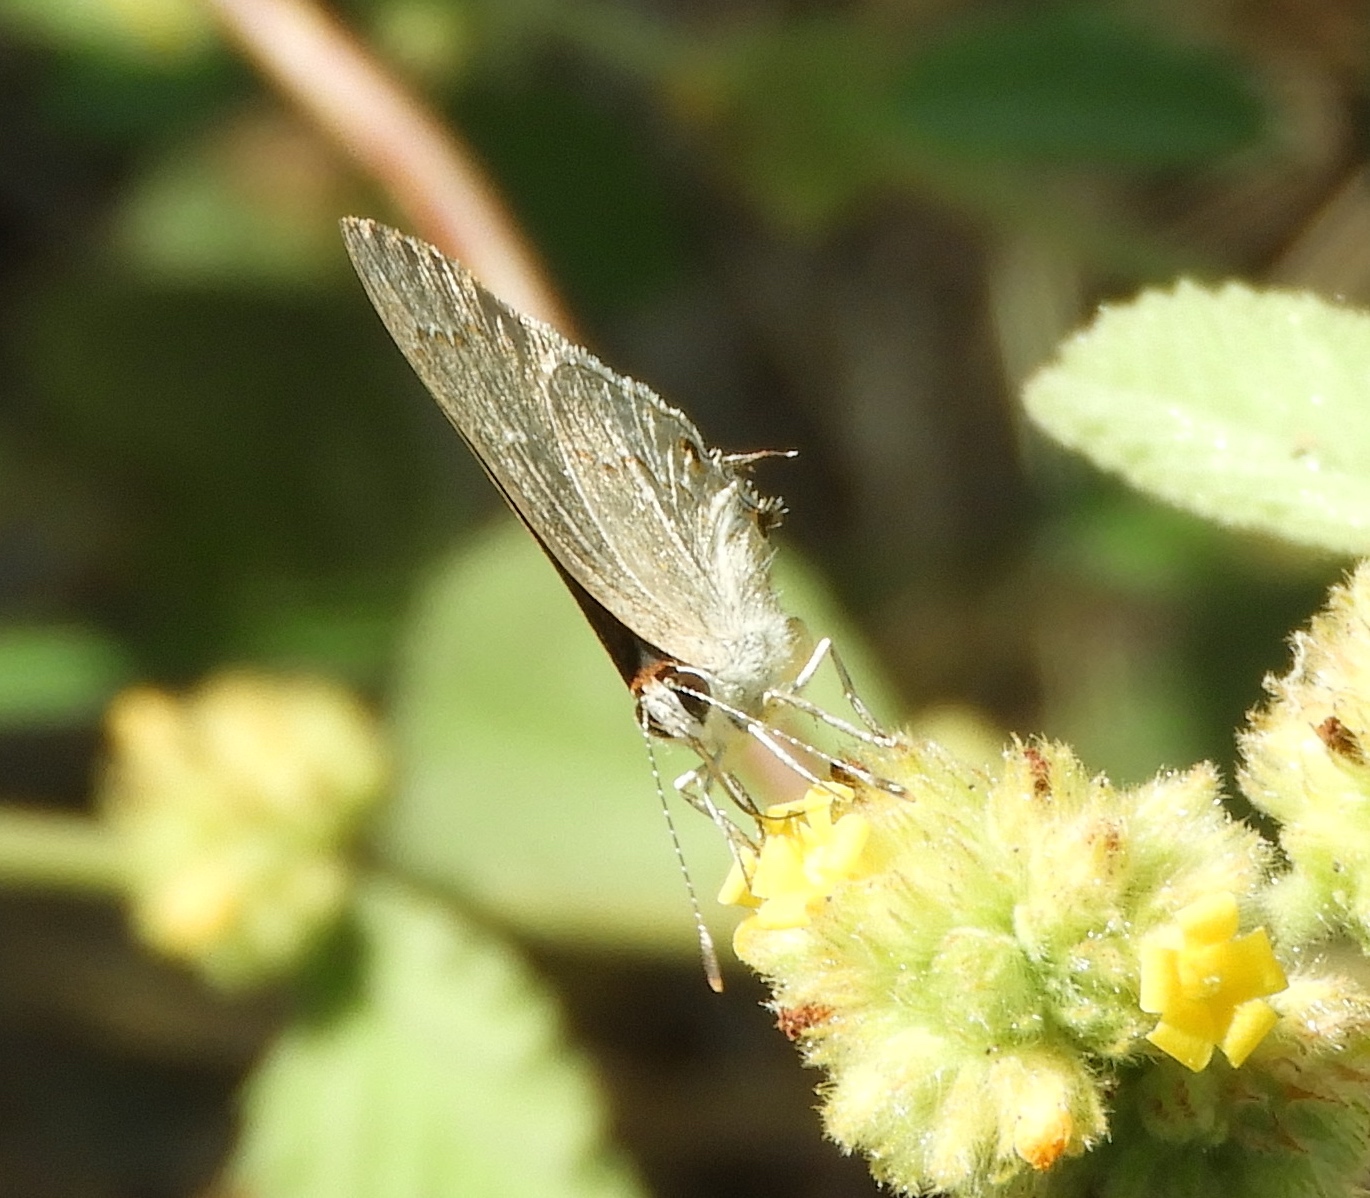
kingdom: Animalia
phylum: Arthropoda
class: Insecta
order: Lepidoptera
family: Lycaenidae
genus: Thecla
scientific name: Thecla rufofusca
